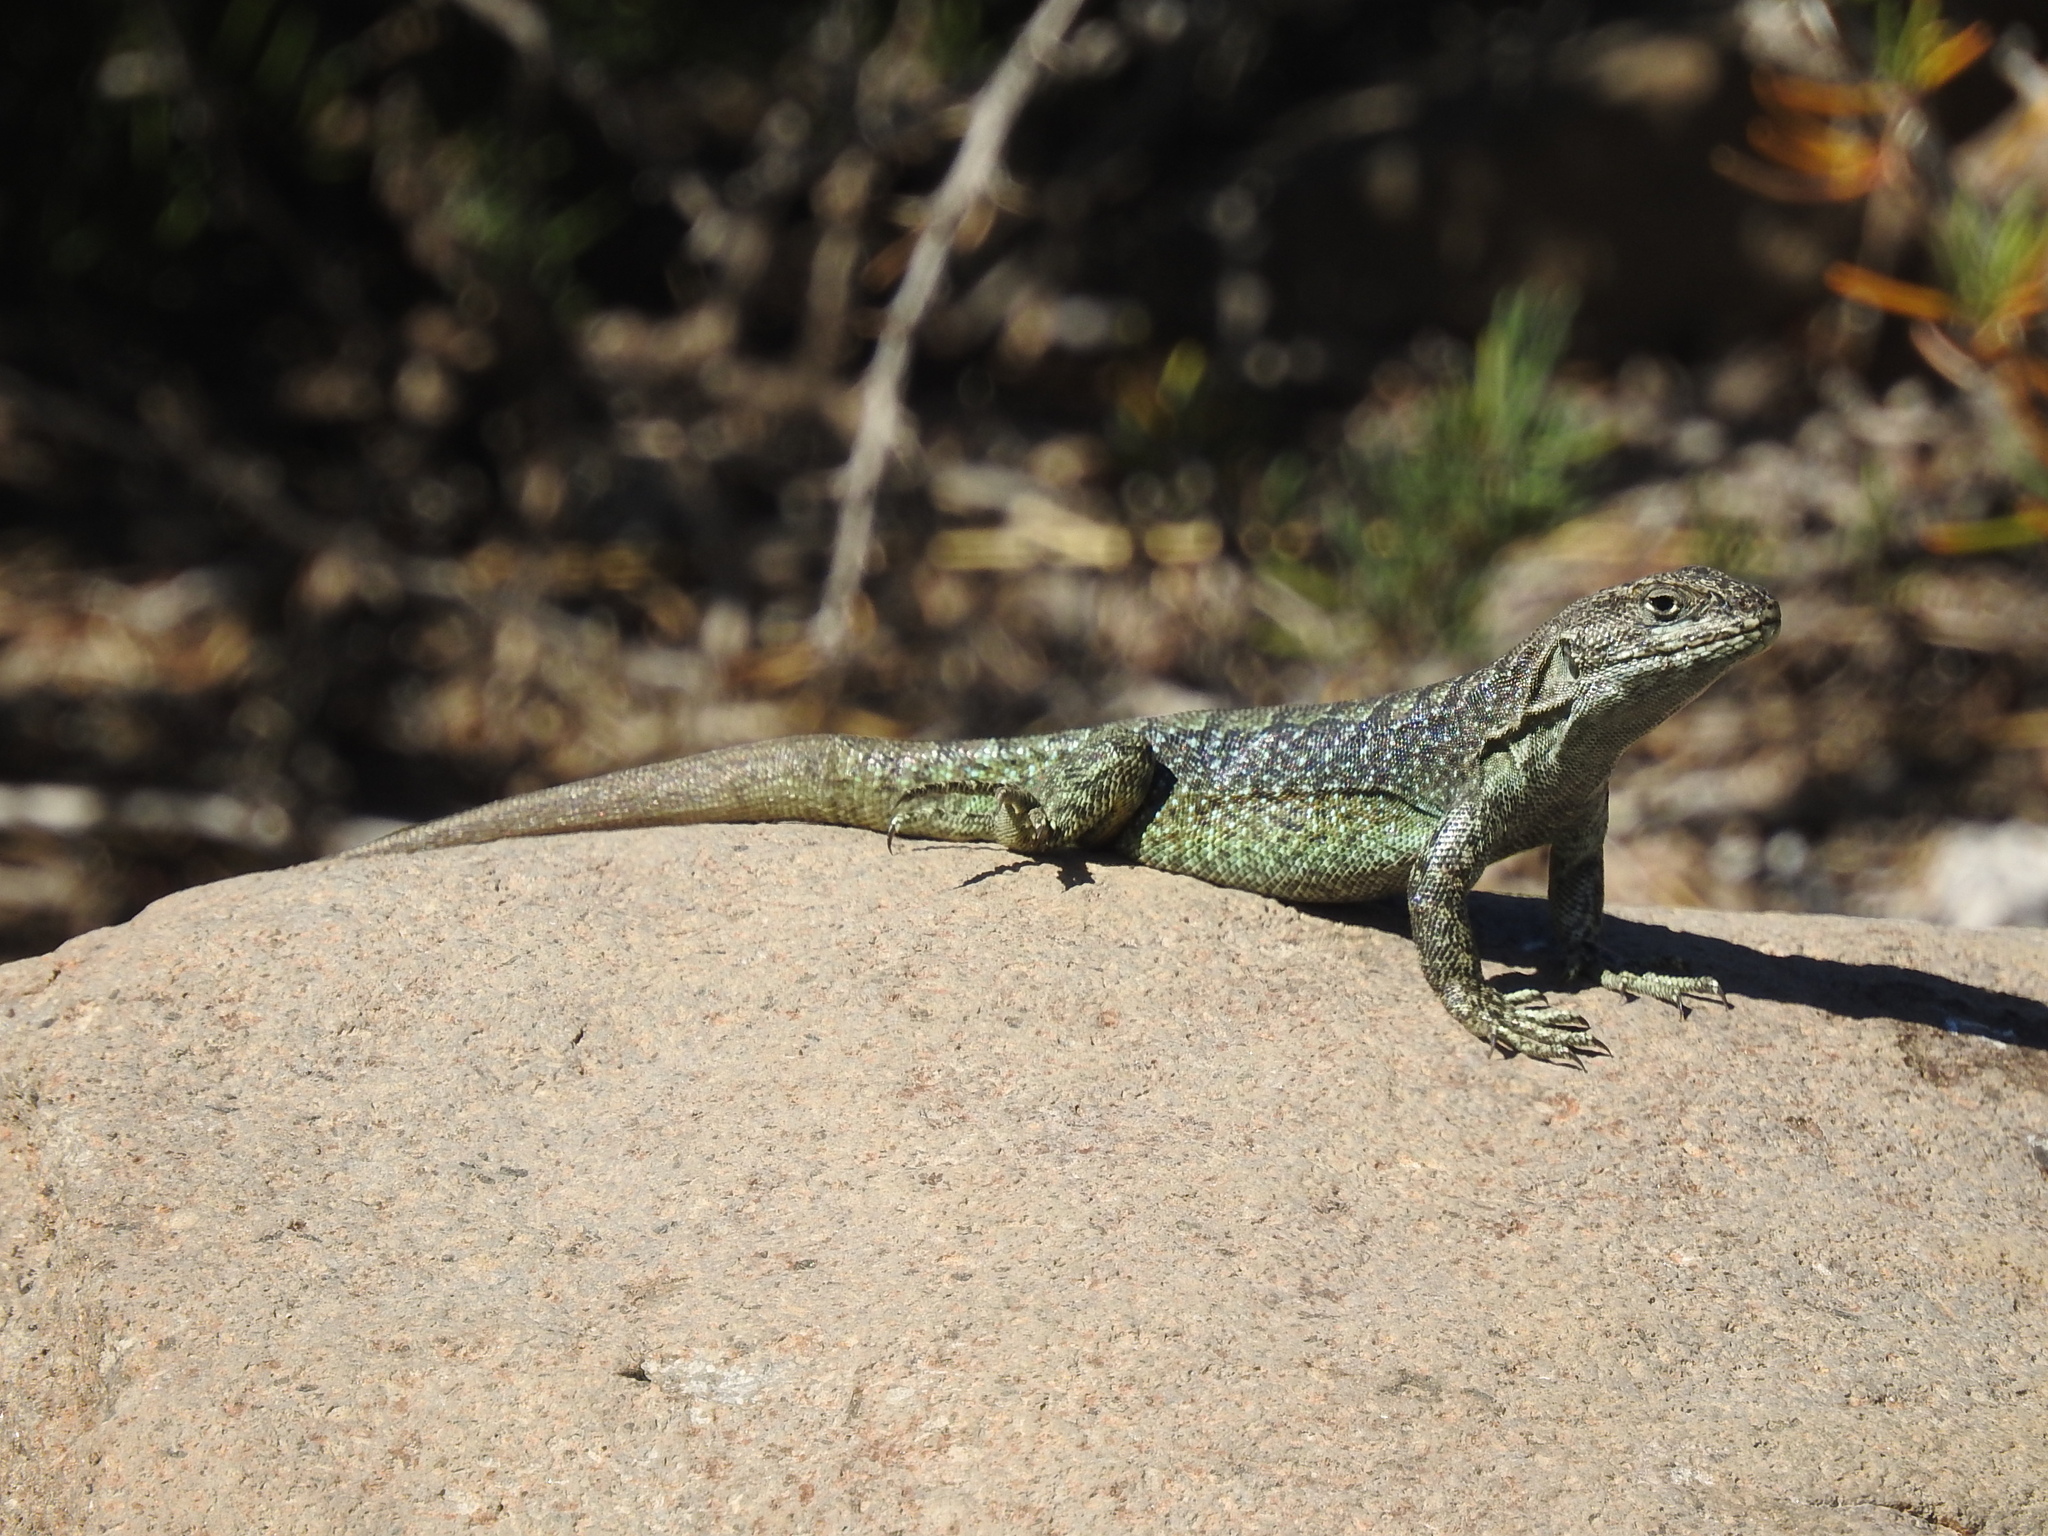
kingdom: Animalia
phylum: Chordata
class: Squamata
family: Liolaemidae
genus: Liolaemus
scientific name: Liolaemus buergeri
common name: Buerger's tree iguana
